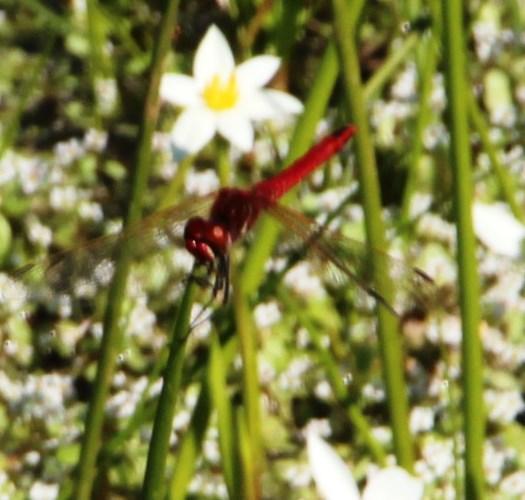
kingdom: Animalia
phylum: Arthropoda
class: Insecta
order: Odonata
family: Libellulidae
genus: Sympetrum
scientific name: Sympetrum fonscolombii
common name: Red-veined darter
